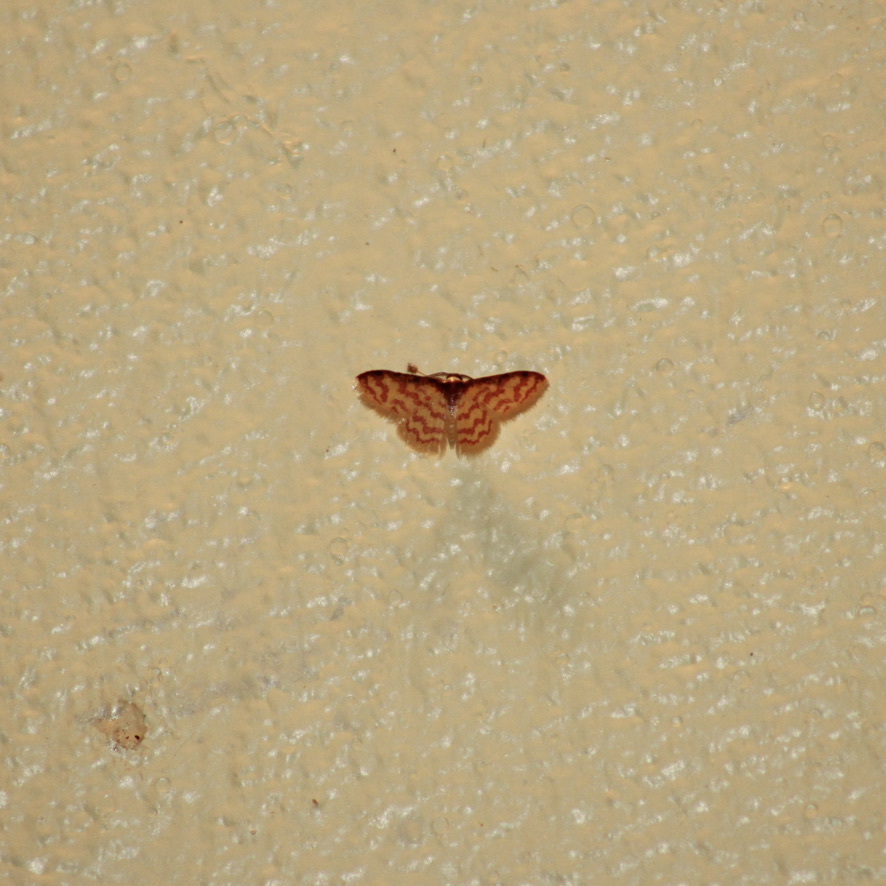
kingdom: Animalia
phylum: Arthropoda
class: Insecta
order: Lepidoptera
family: Geometridae
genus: Tricentrogyna
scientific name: Tricentrogyna deportata
